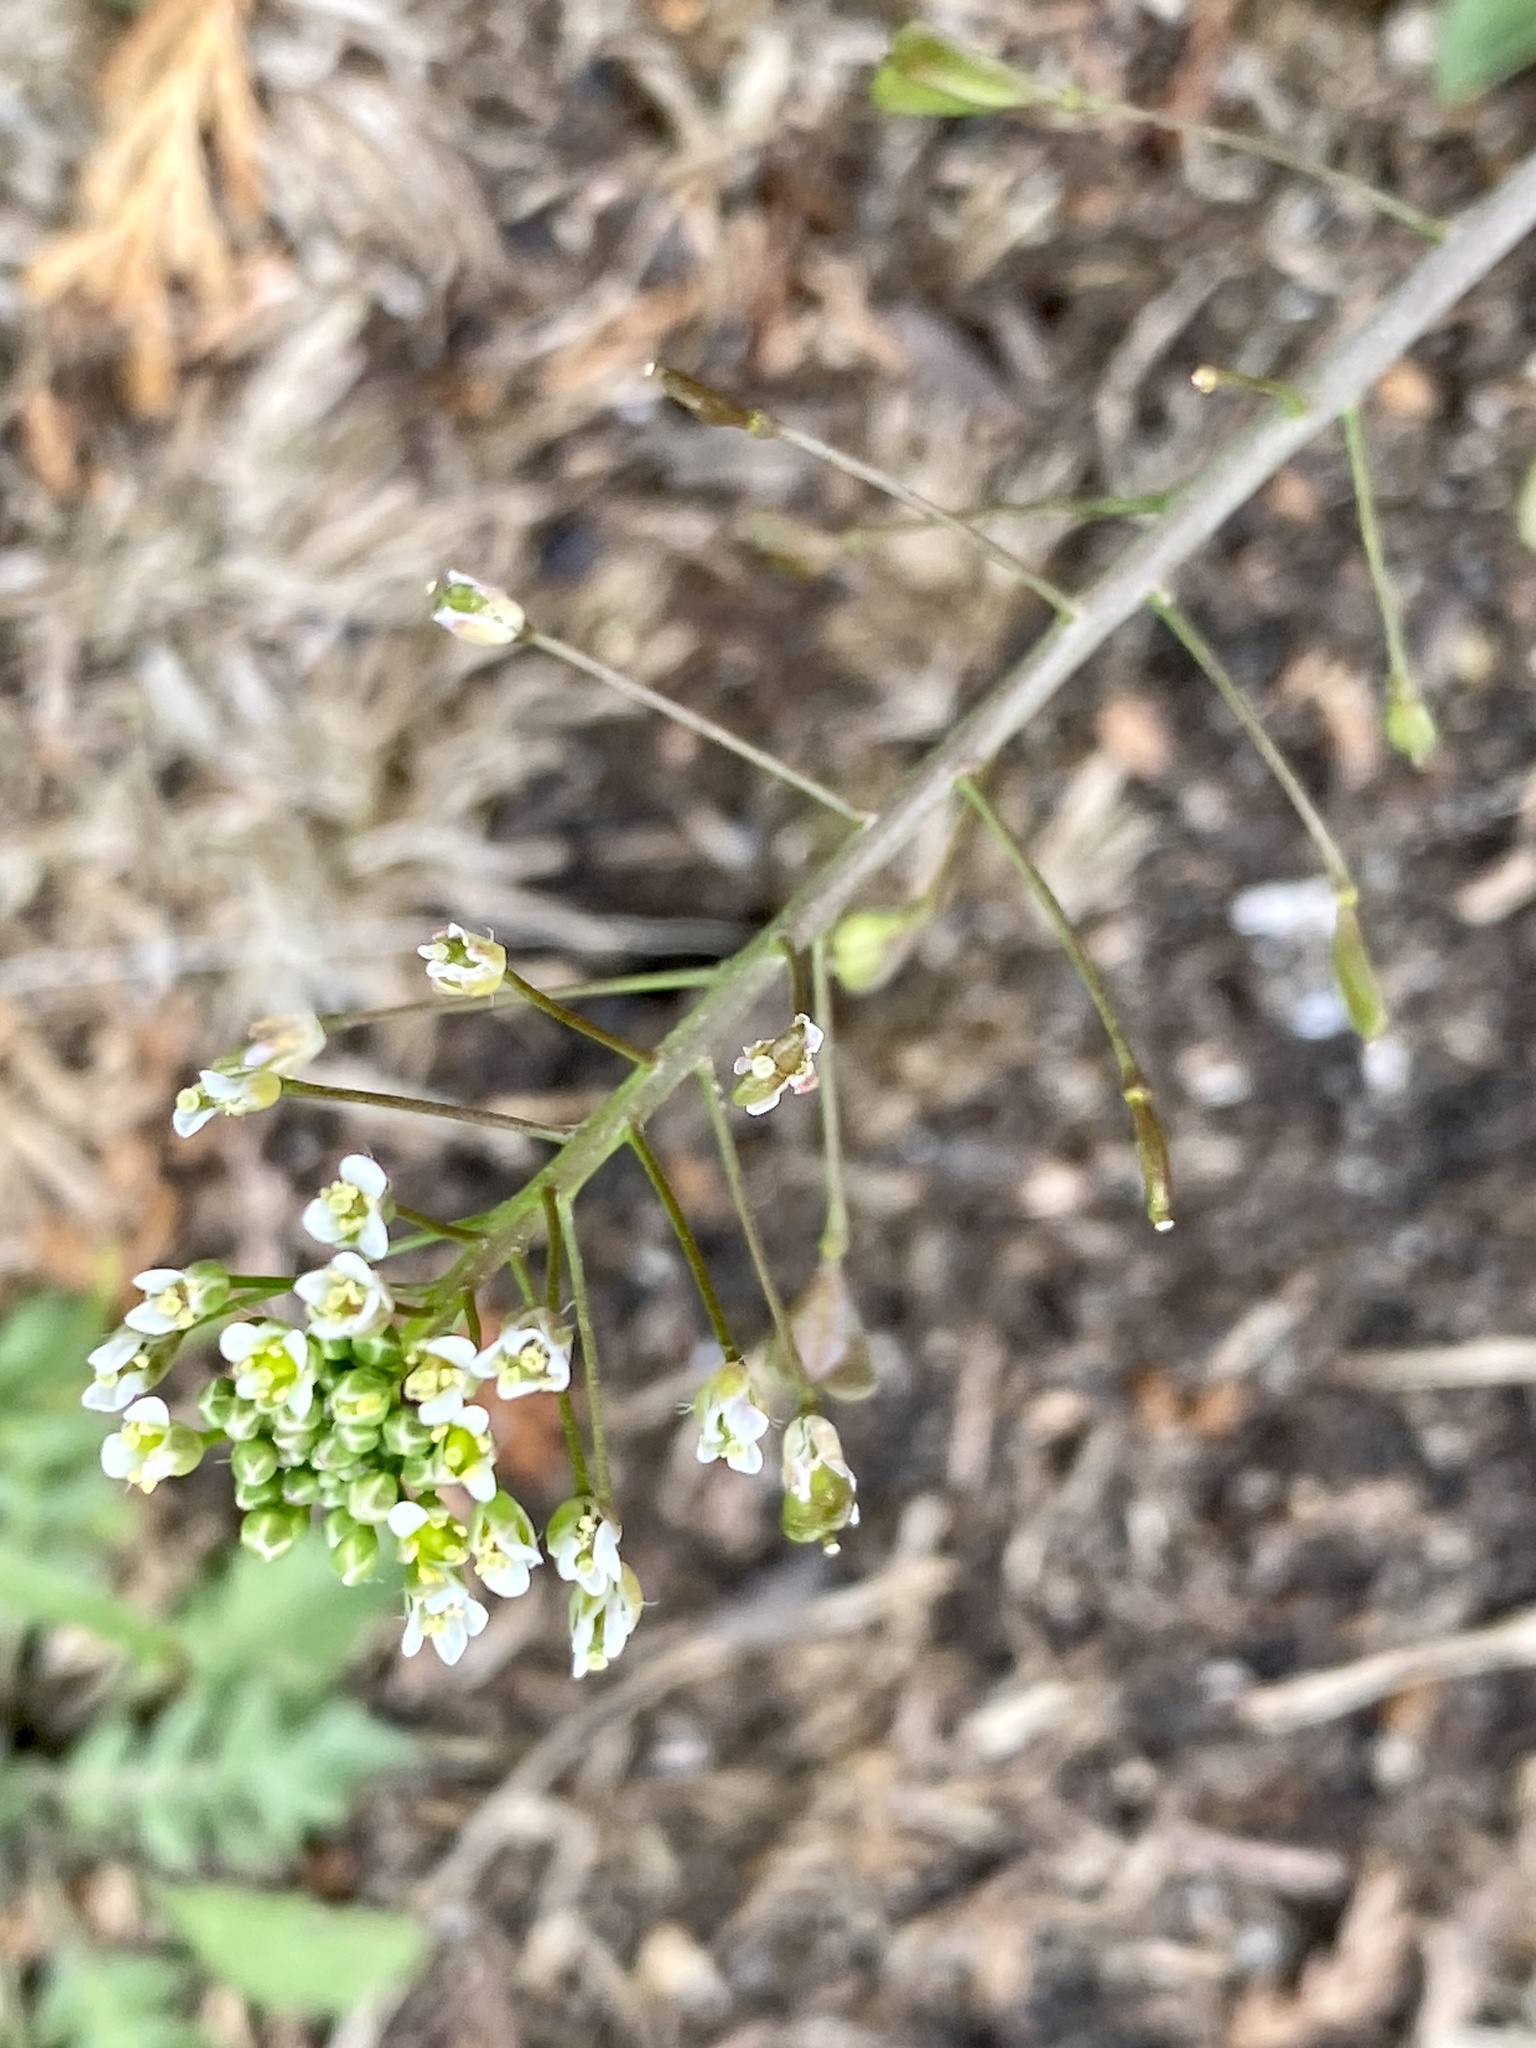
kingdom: Plantae
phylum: Tracheophyta
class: Magnoliopsida
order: Brassicales
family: Brassicaceae
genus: Capsella
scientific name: Capsella bursa-pastoris
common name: Shepherd's purse
